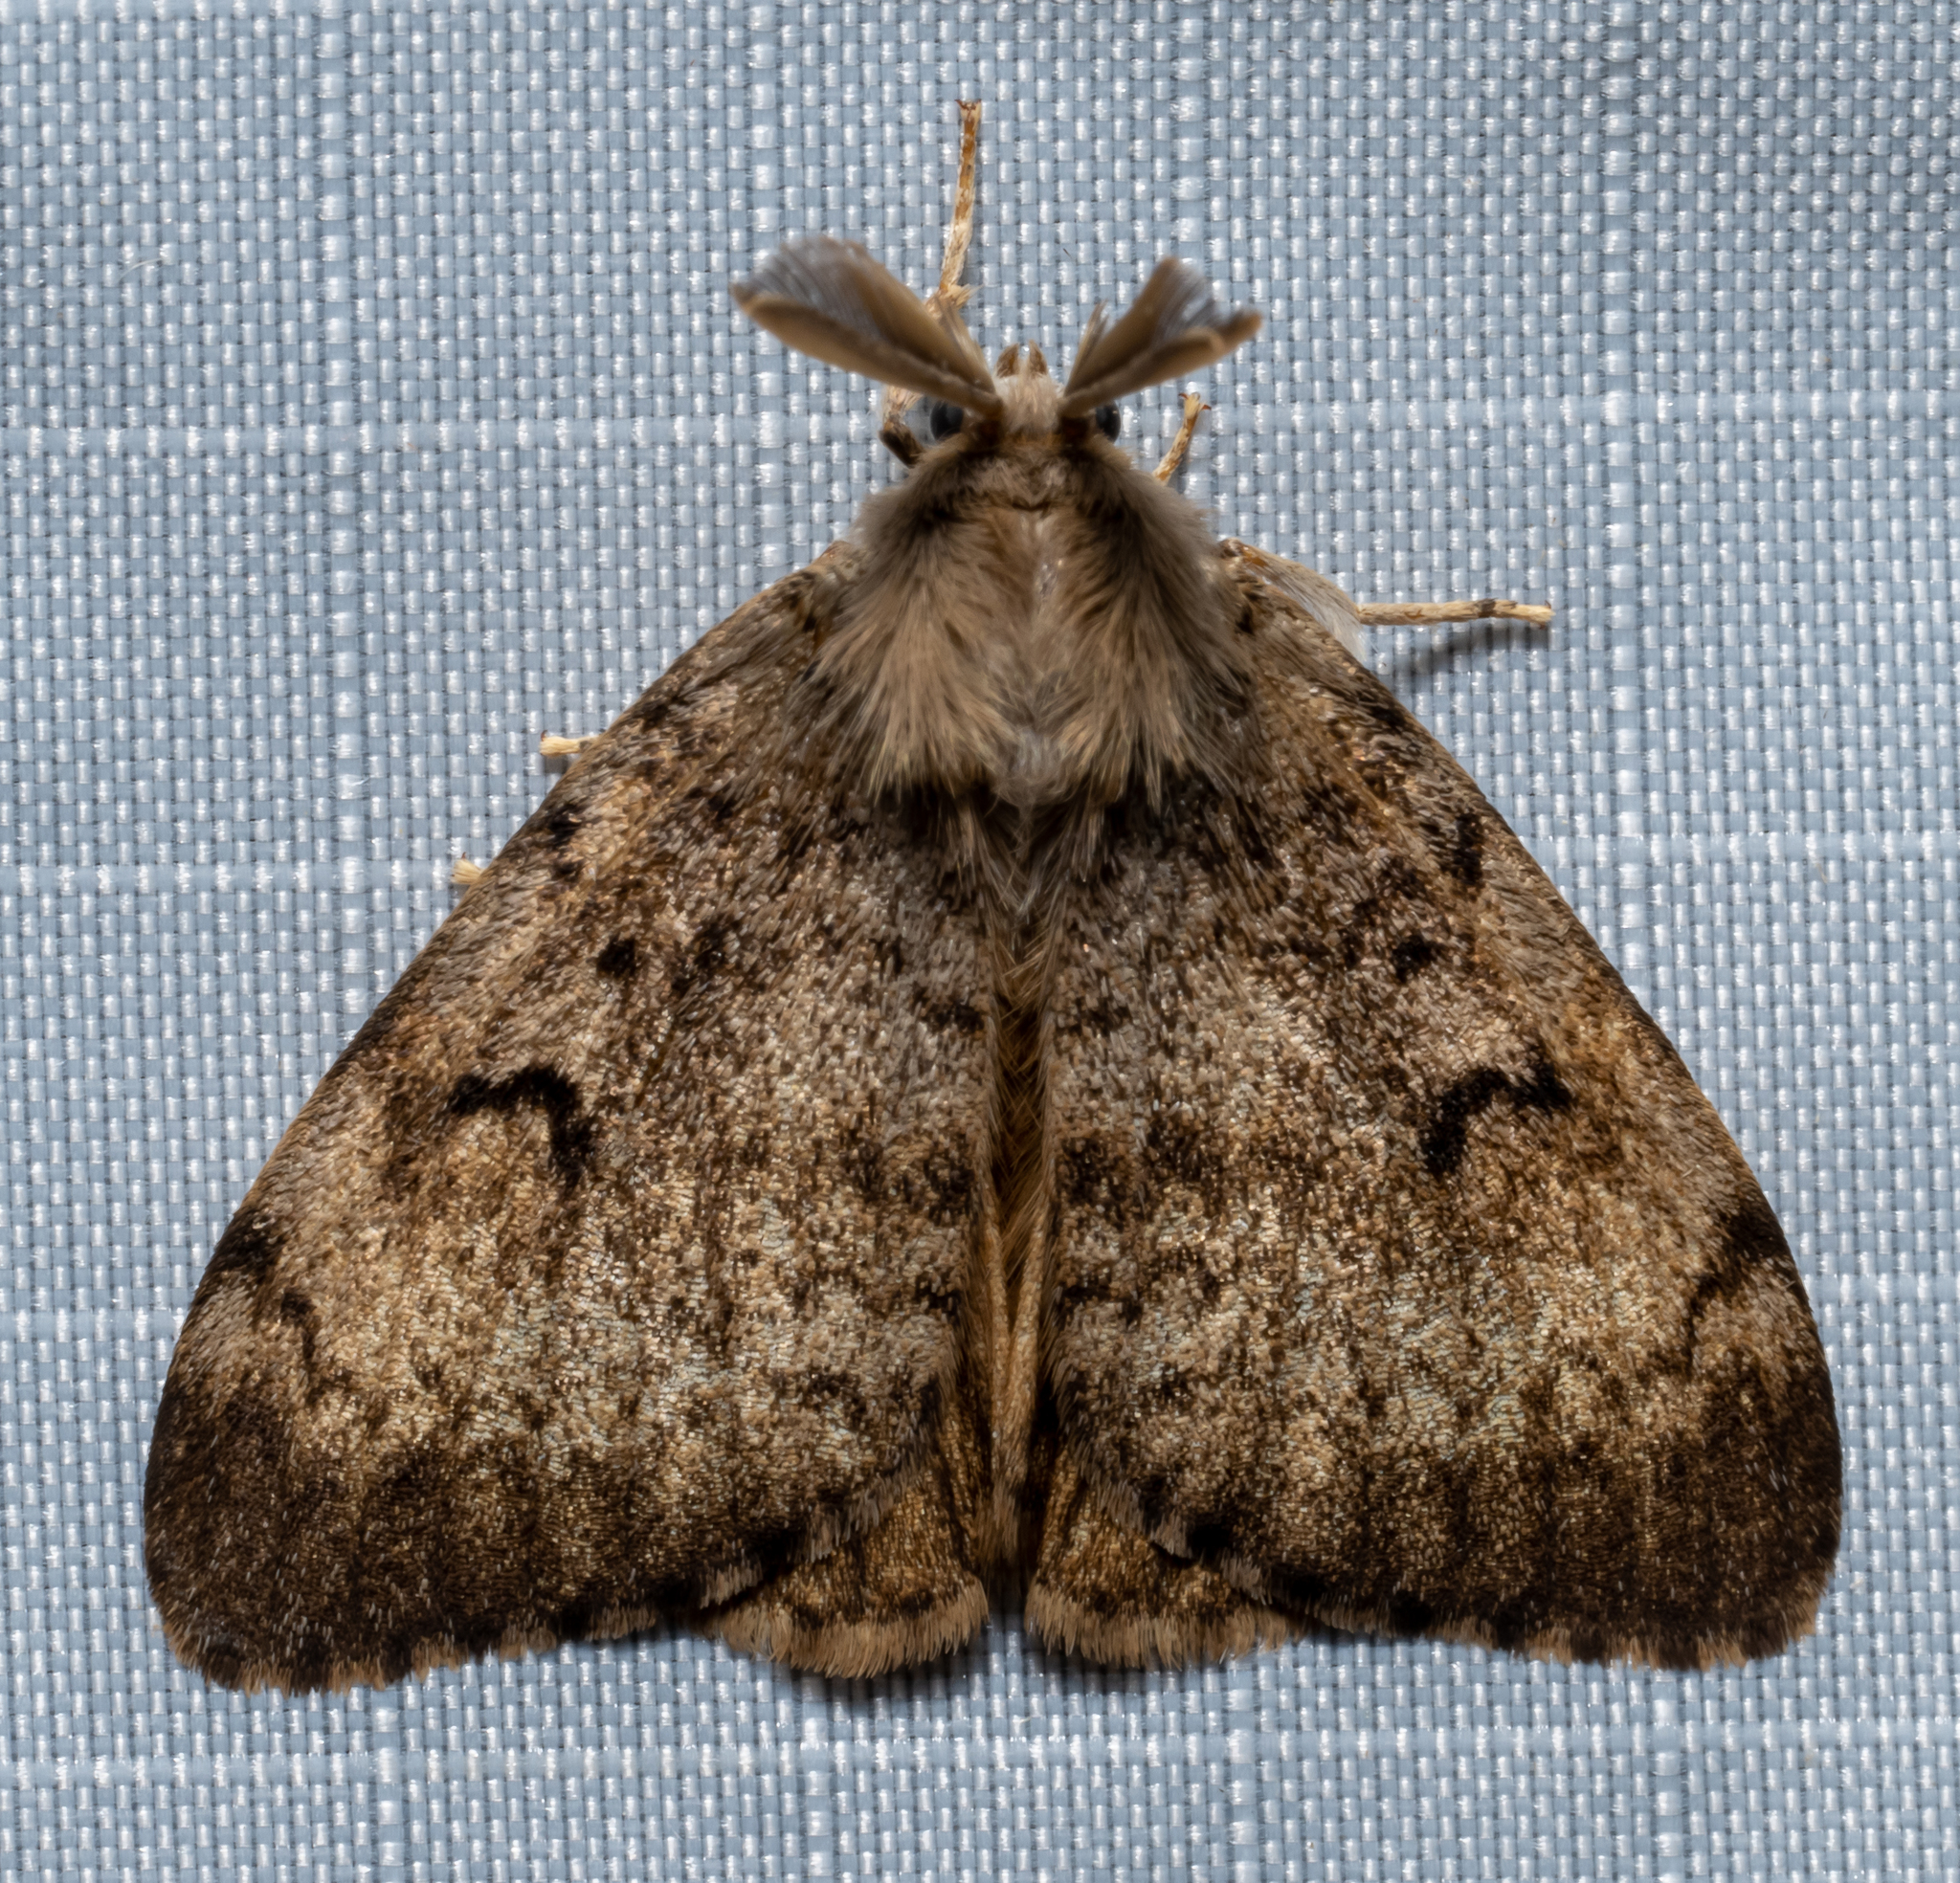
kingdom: Animalia
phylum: Arthropoda
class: Insecta
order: Lepidoptera
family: Erebidae
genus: Lymantria
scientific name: Lymantria dispar
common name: Gypsy moth
